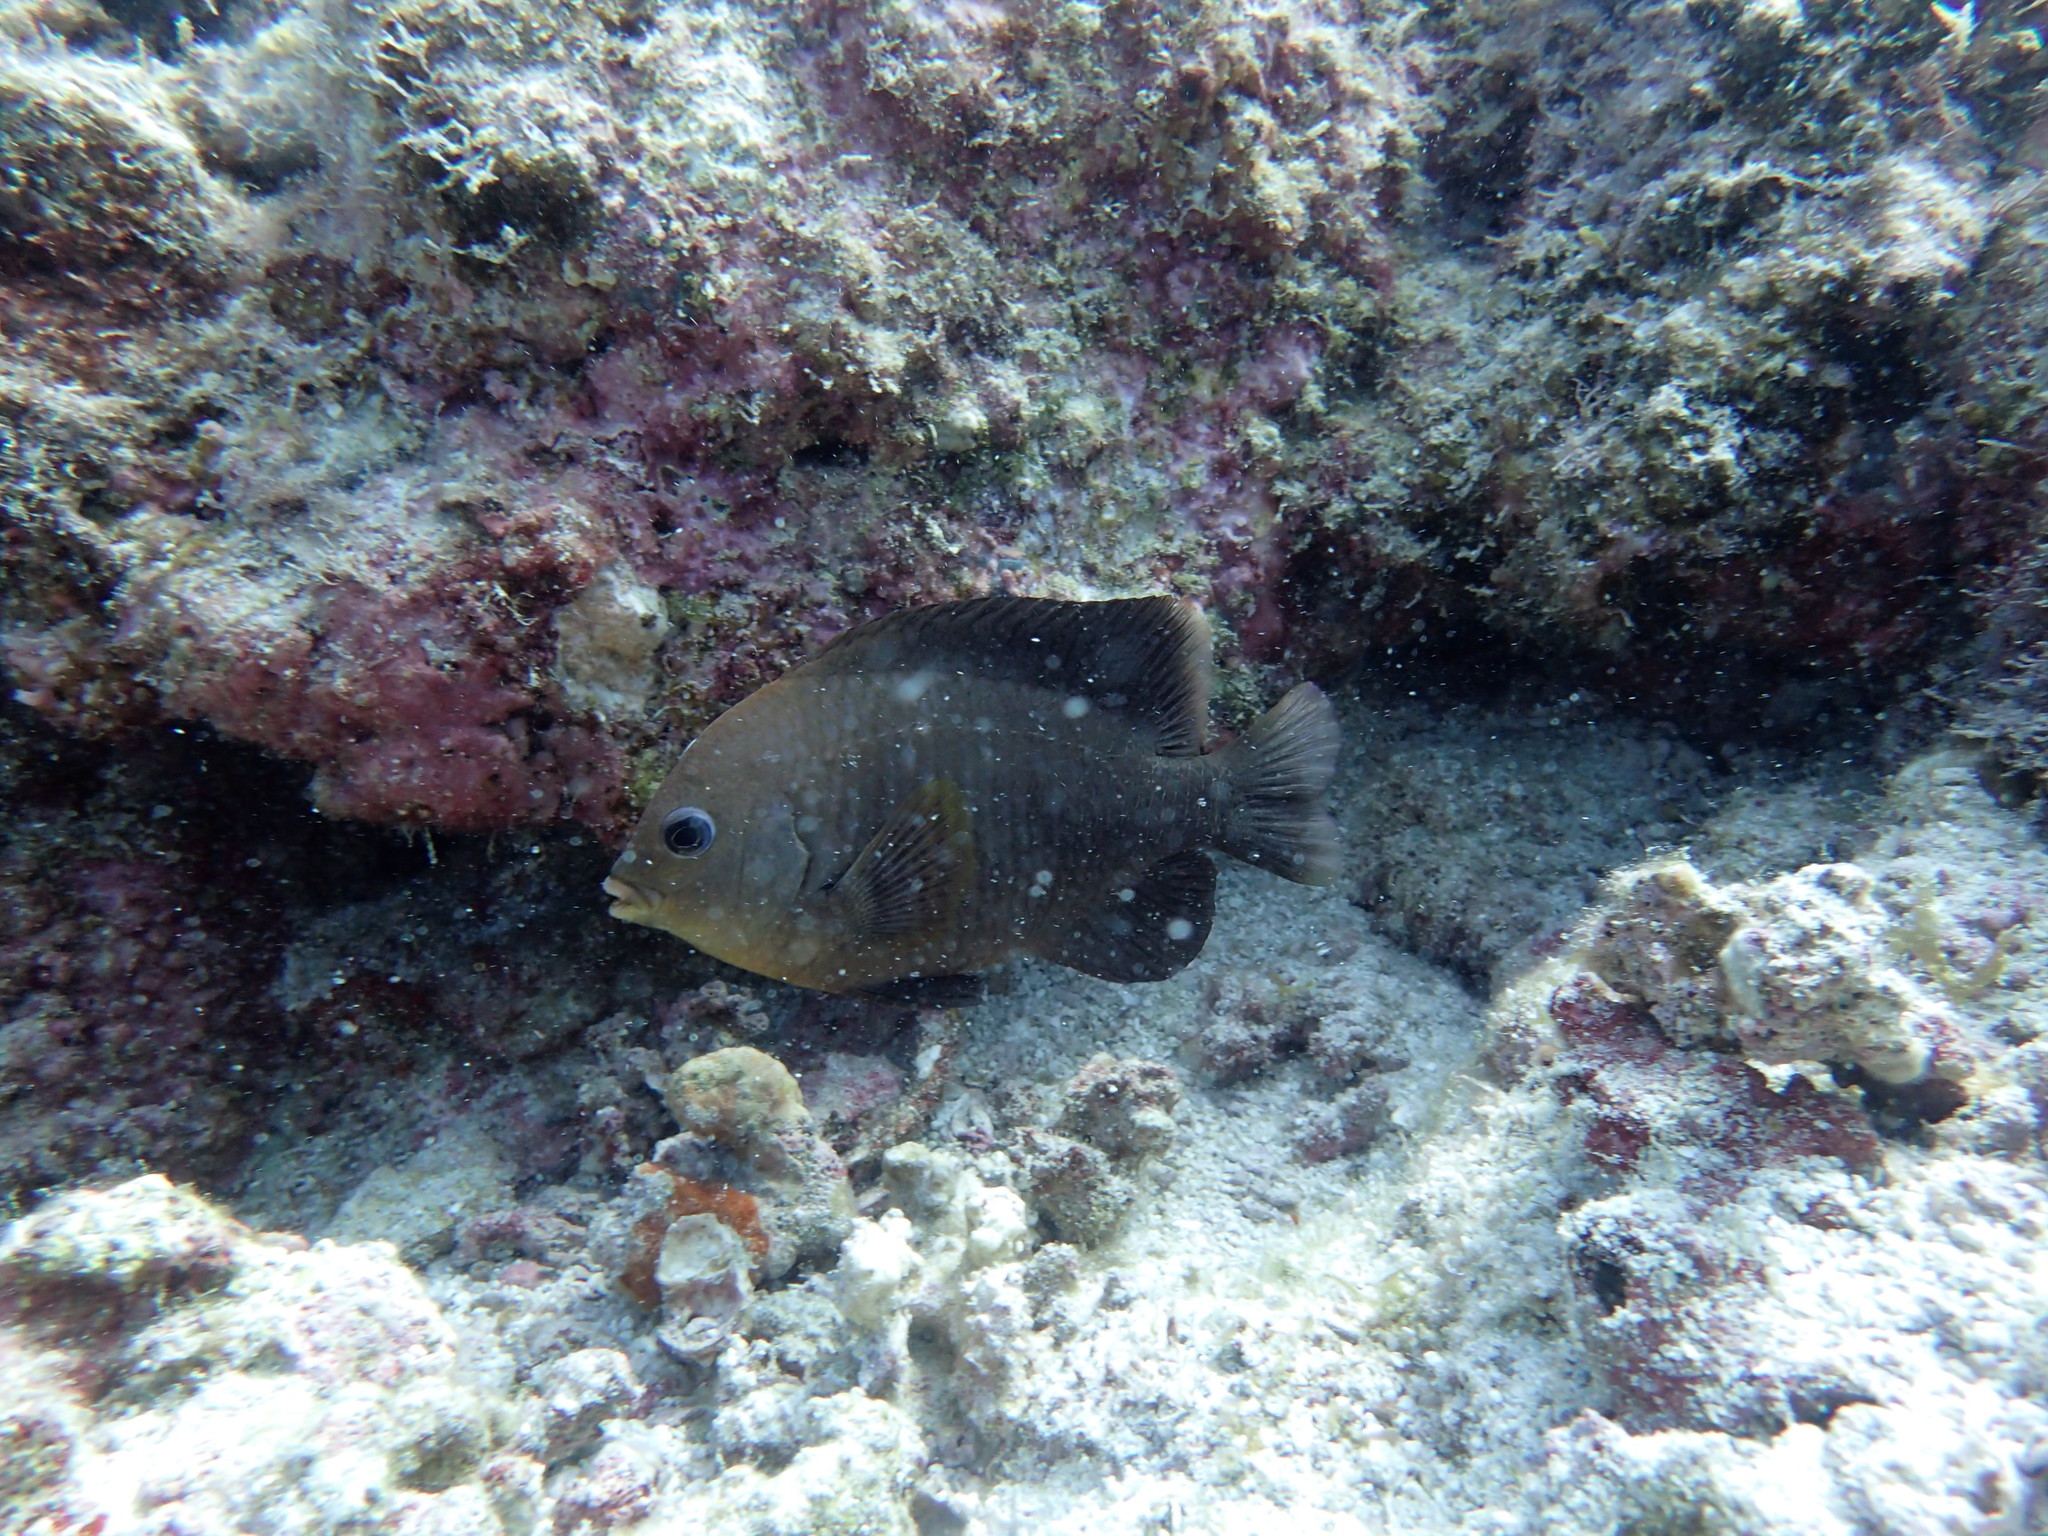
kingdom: Animalia
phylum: Chordata
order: Perciformes
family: Pomacentridae
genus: Stegastes
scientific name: Stegastes rectifraenum
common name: Cortez damselfish
